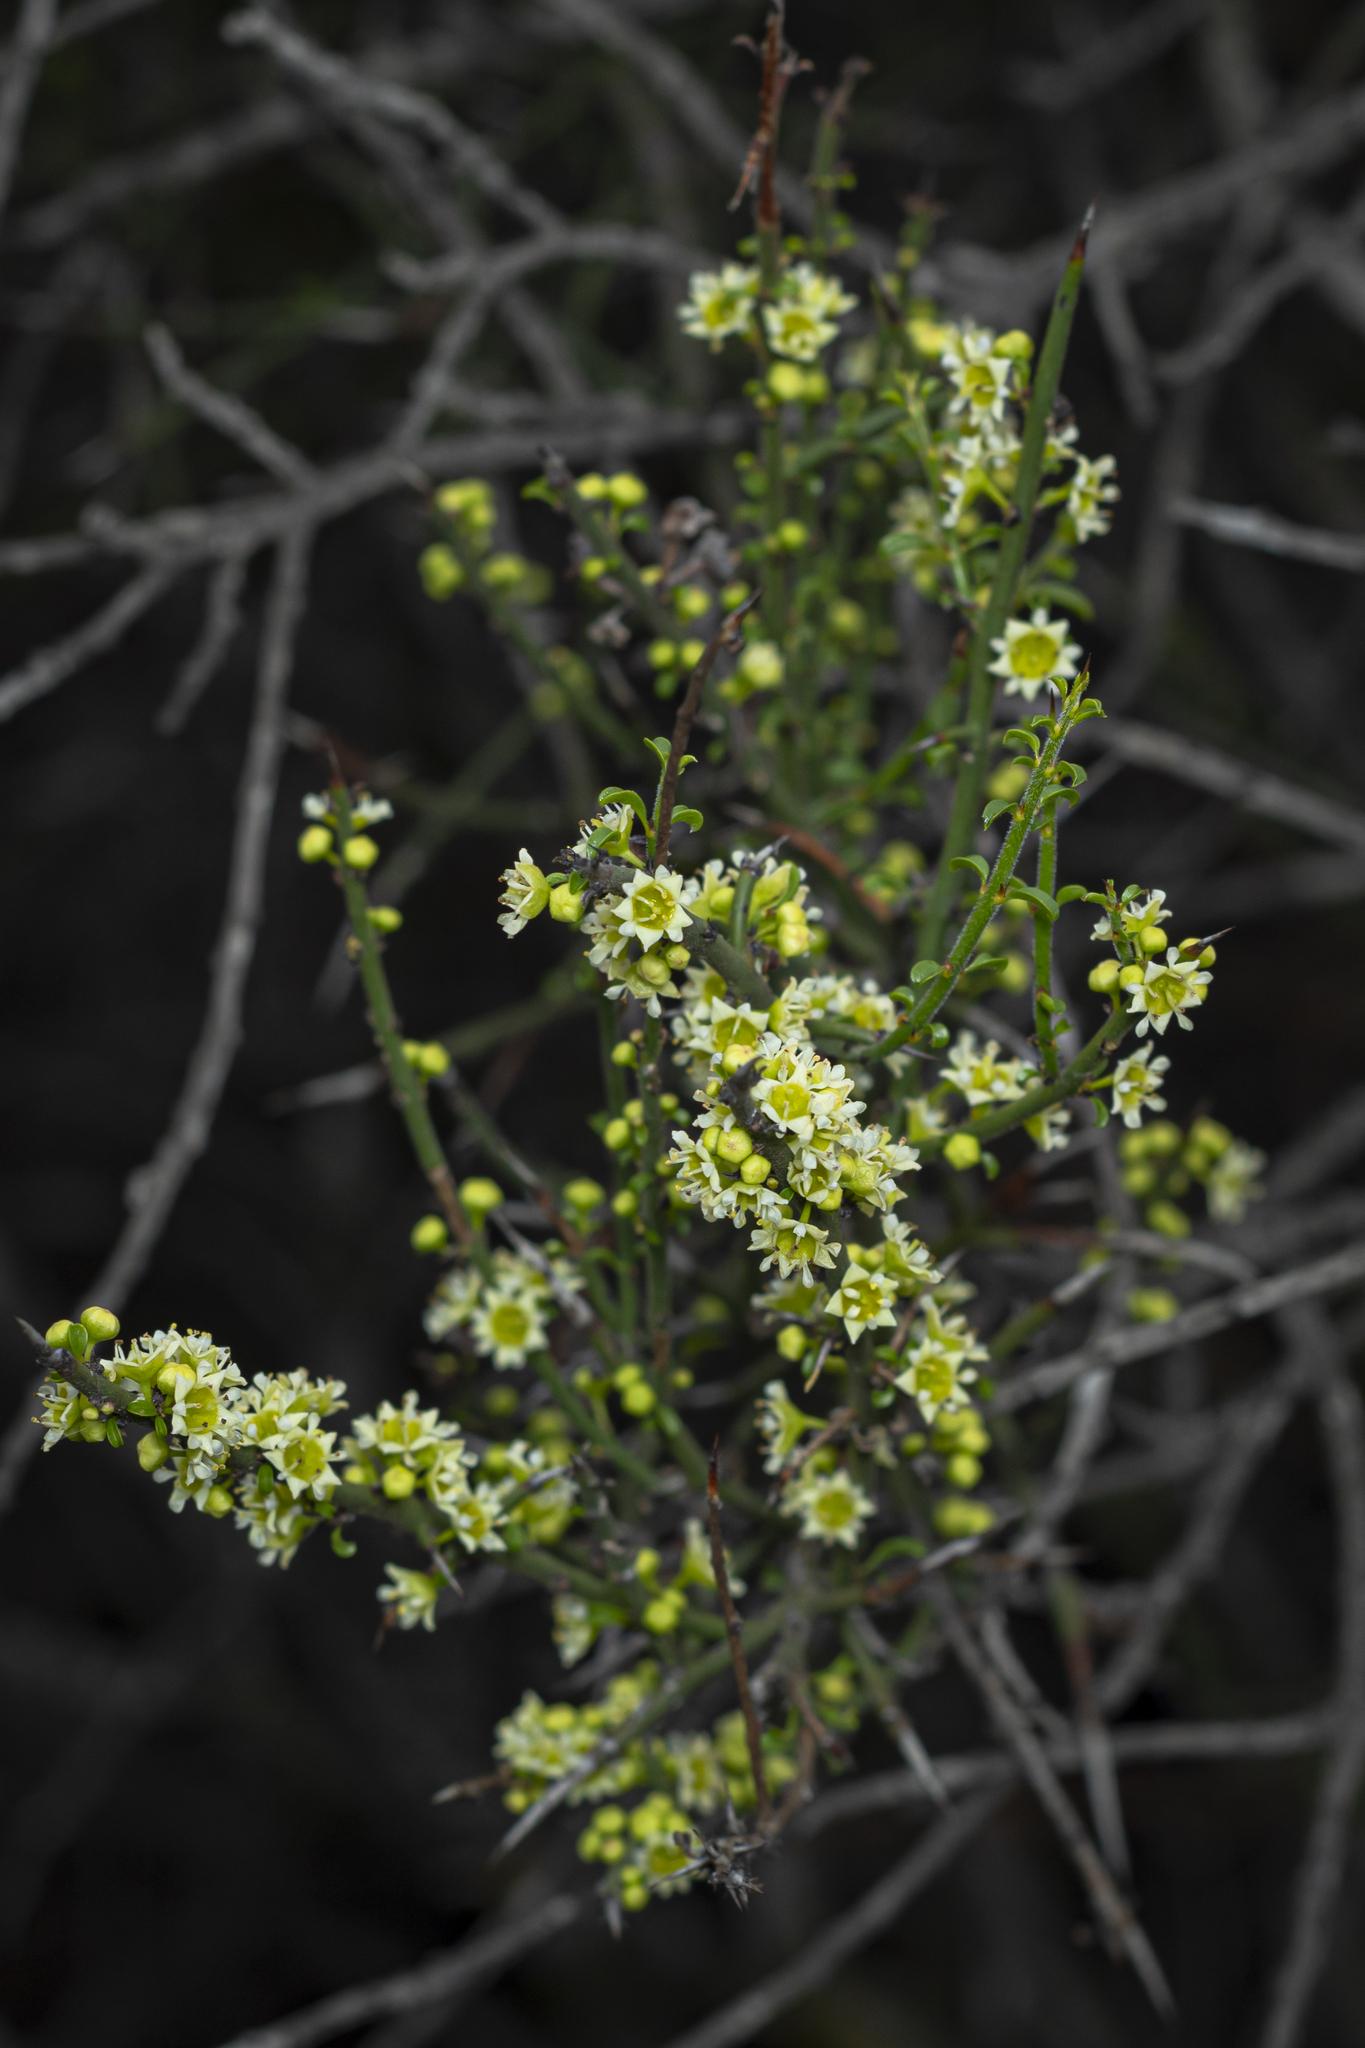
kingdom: Plantae
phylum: Tracheophyta
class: Magnoliopsida
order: Rosales
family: Rhamnaceae
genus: Adolphia
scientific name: Adolphia californica
